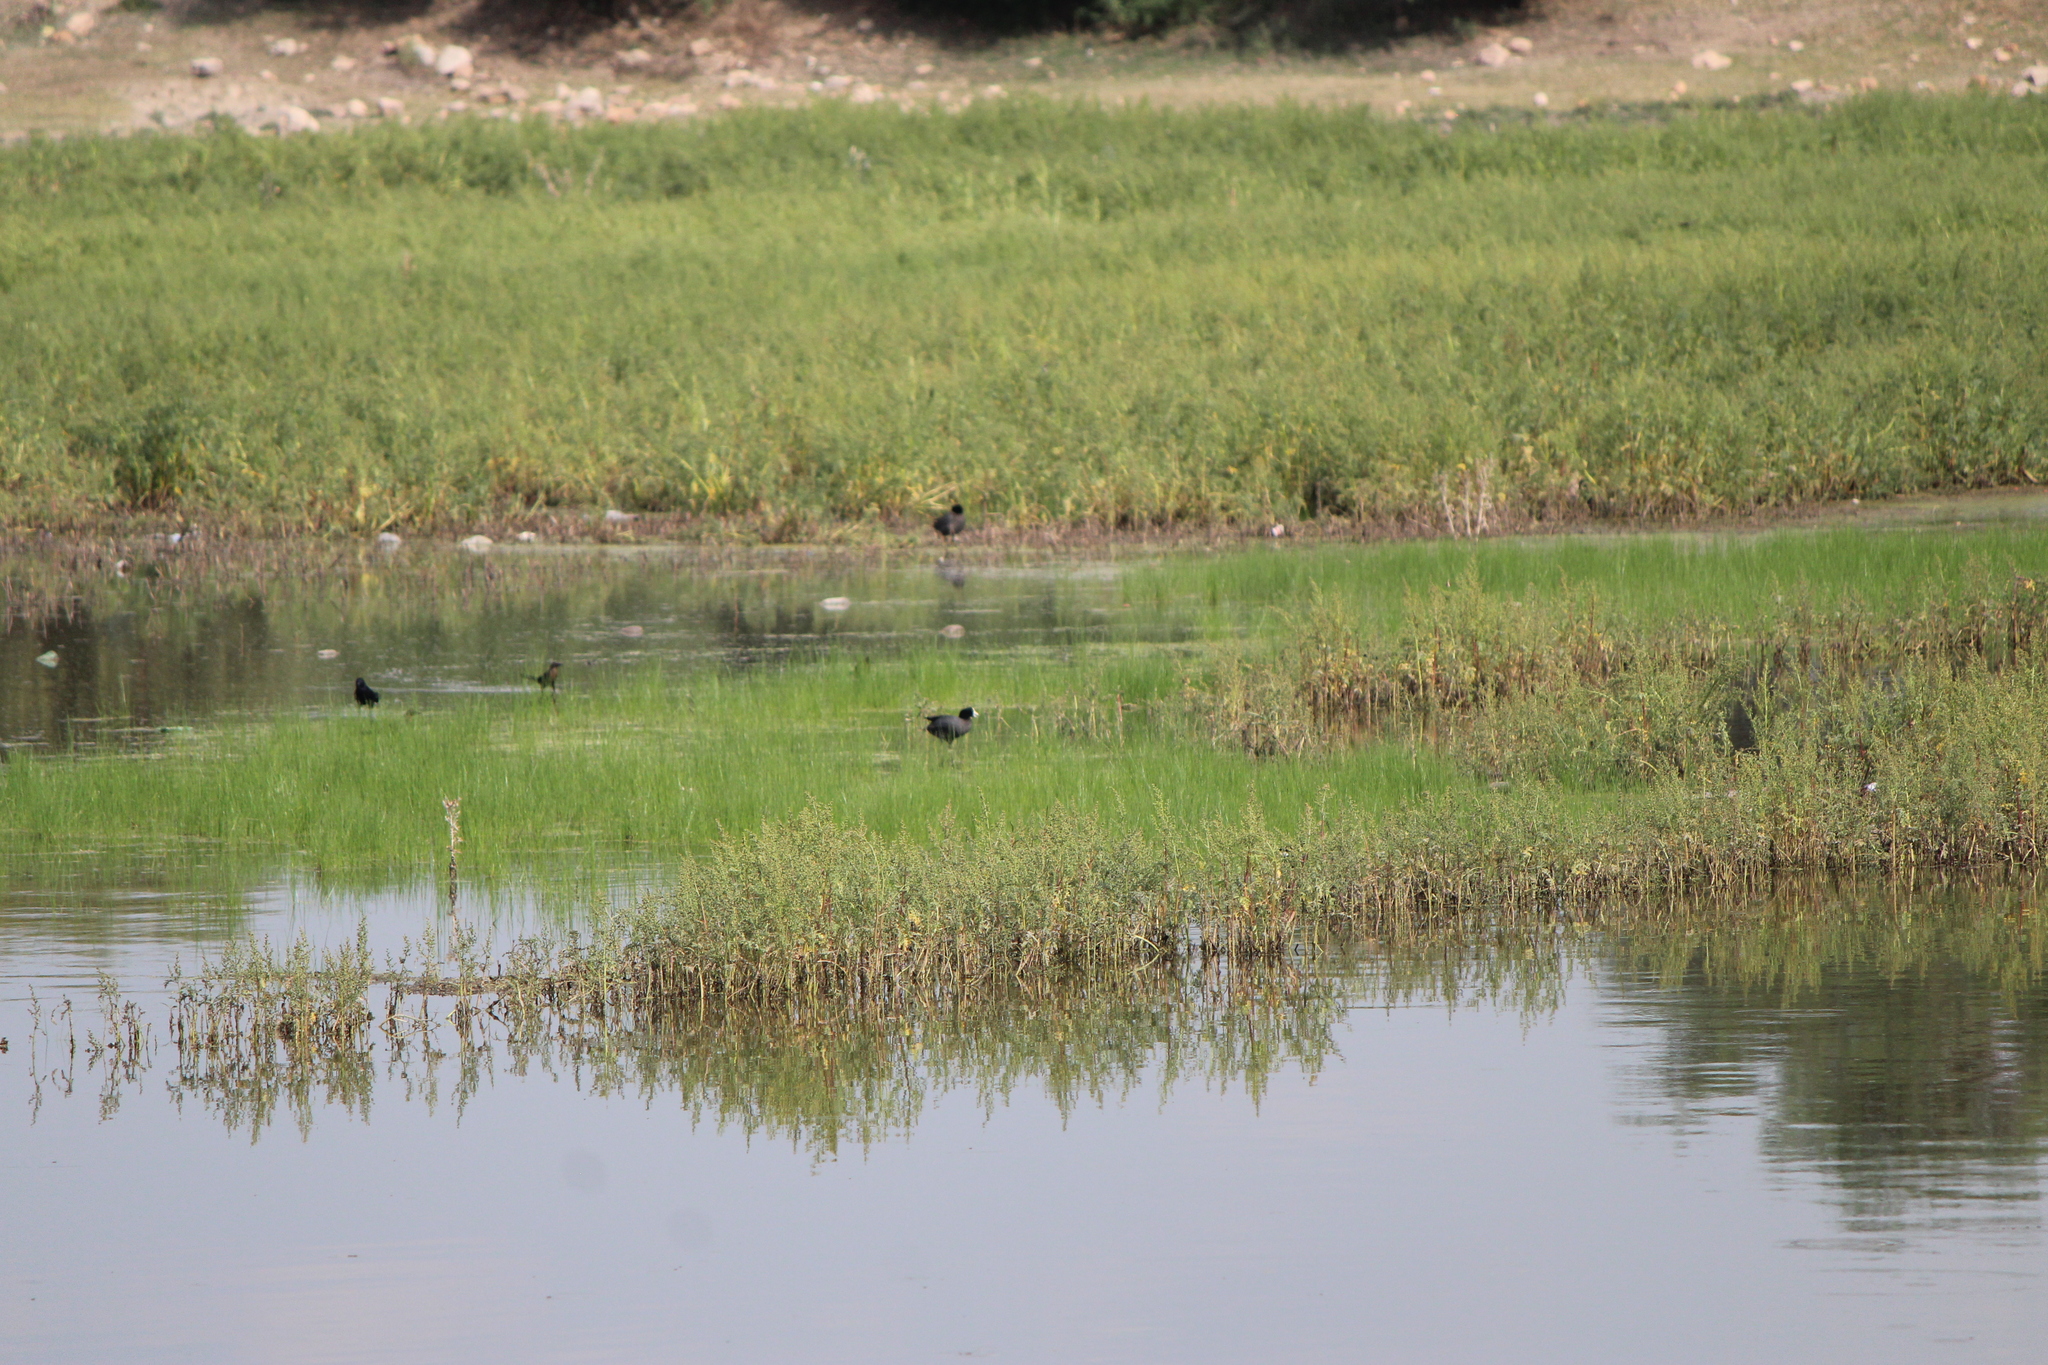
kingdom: Animalia
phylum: Chordata
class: Aves
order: Gruiformes
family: Rallidae
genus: Fulica
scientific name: Fulica americana
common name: American coot
